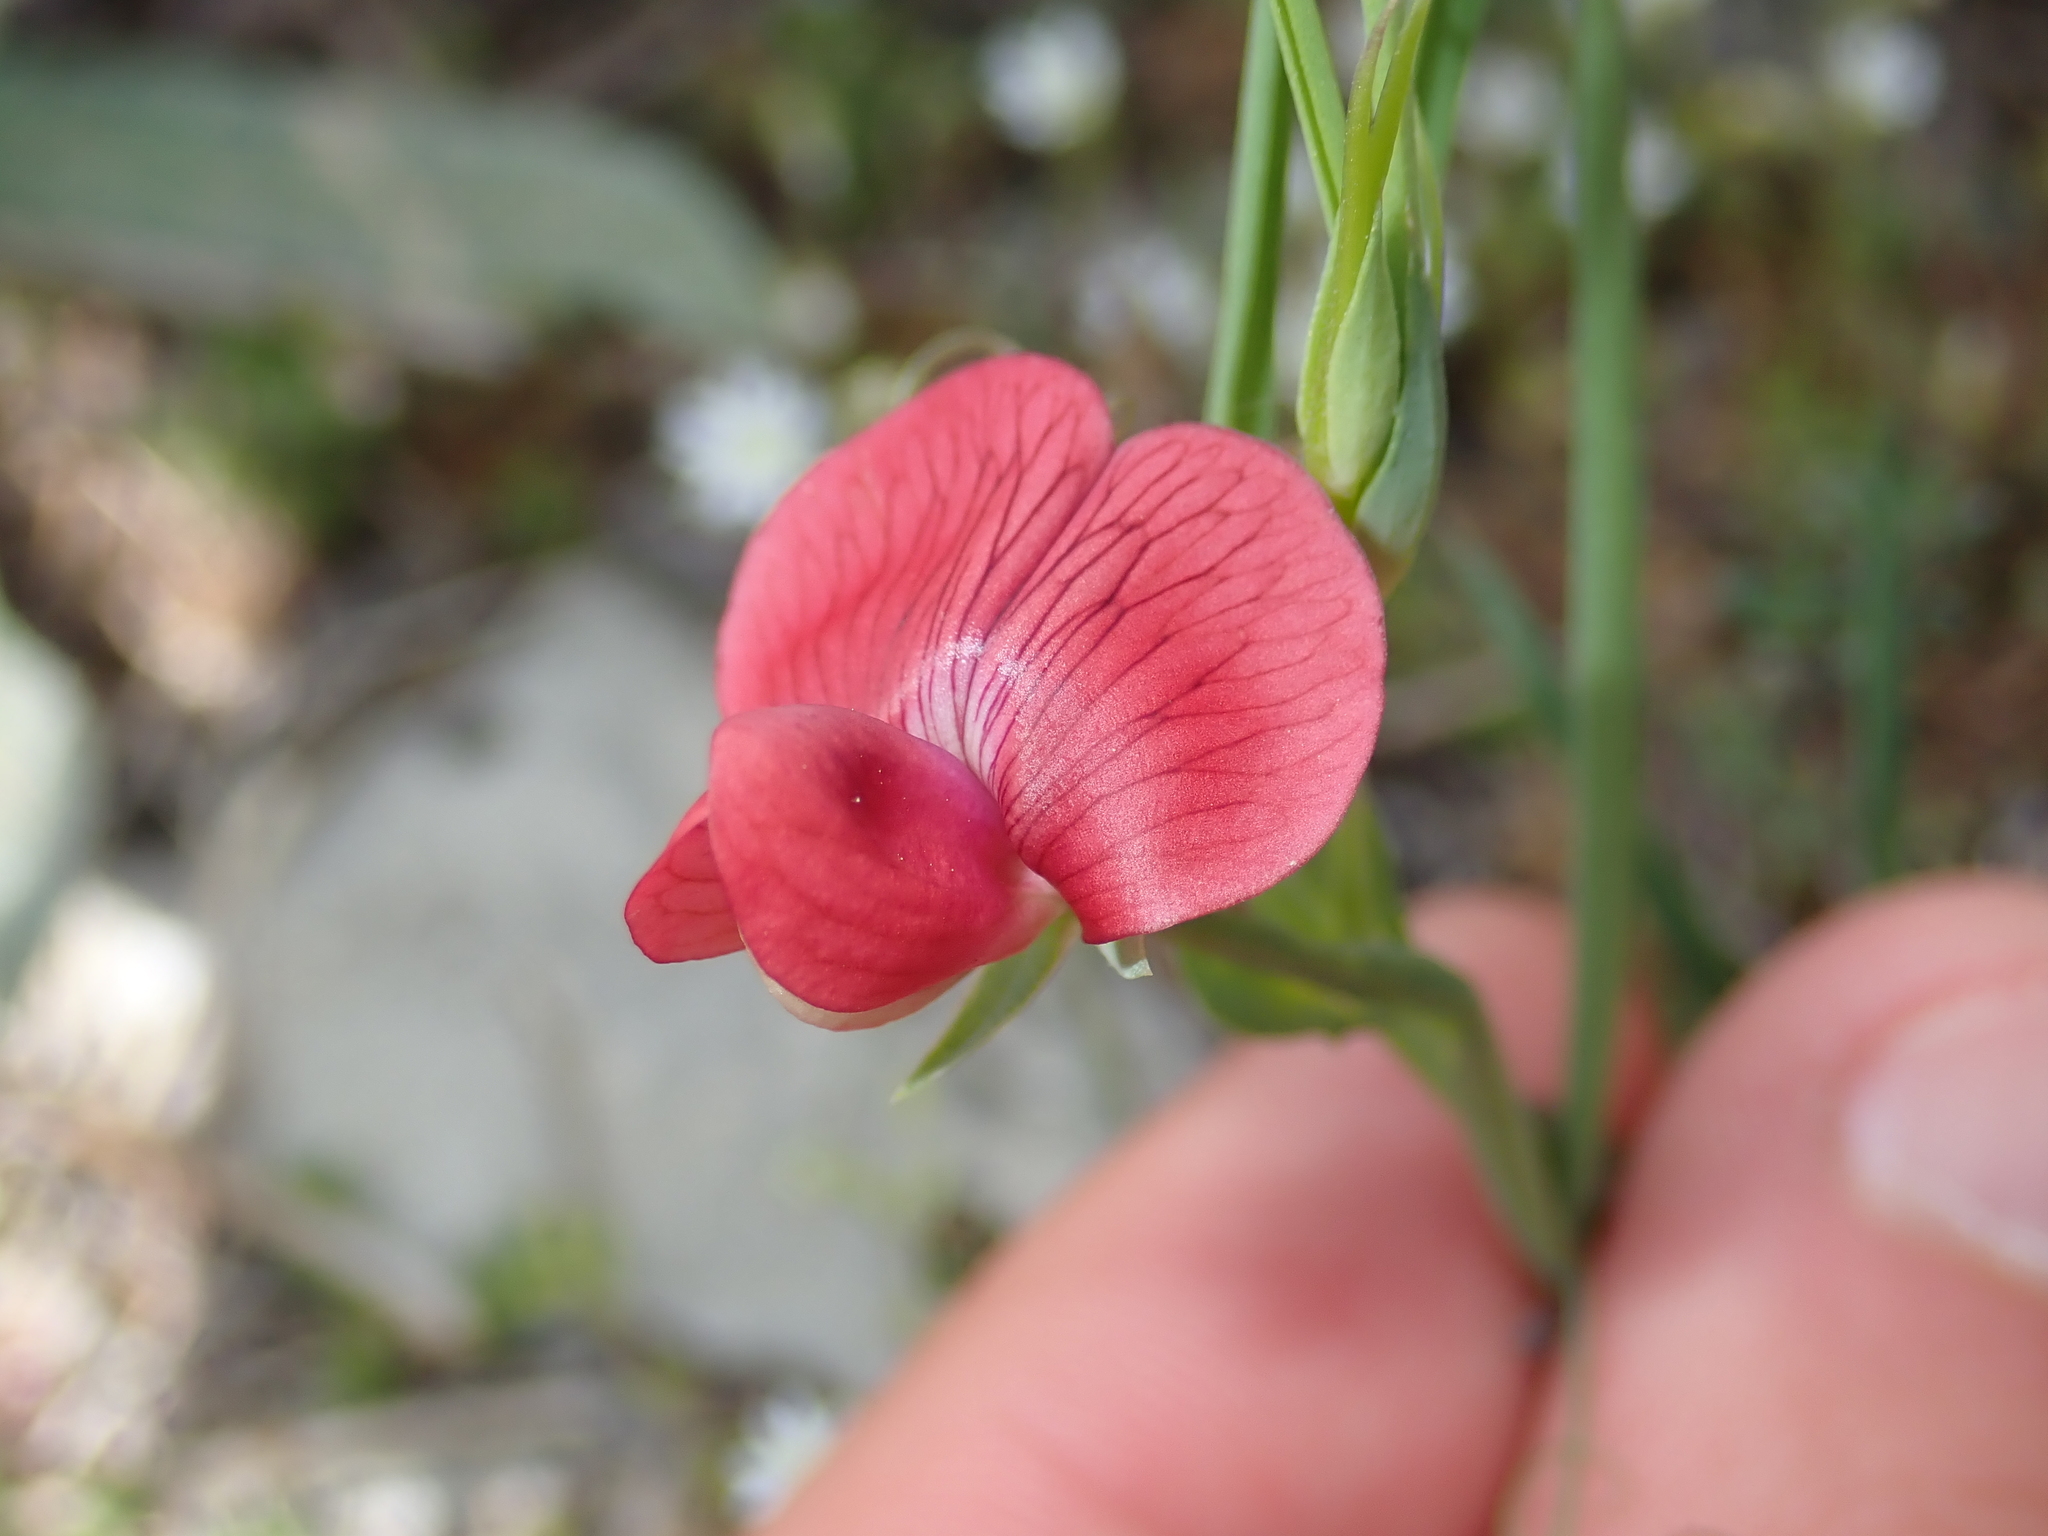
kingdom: Plantae
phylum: Tracheophyta
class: Magnoliopsida
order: Fabales
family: Fabaceae
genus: Lathyrus
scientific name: Lathyrus cicera
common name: Red vetchling
